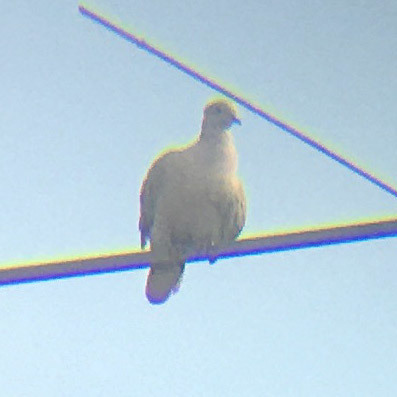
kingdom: Animalia
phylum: Chordata
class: Aves
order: Columbiformes
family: Columbidae
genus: Streptopelia
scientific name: Streptopelia decaocto
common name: Eurasian collared dove
